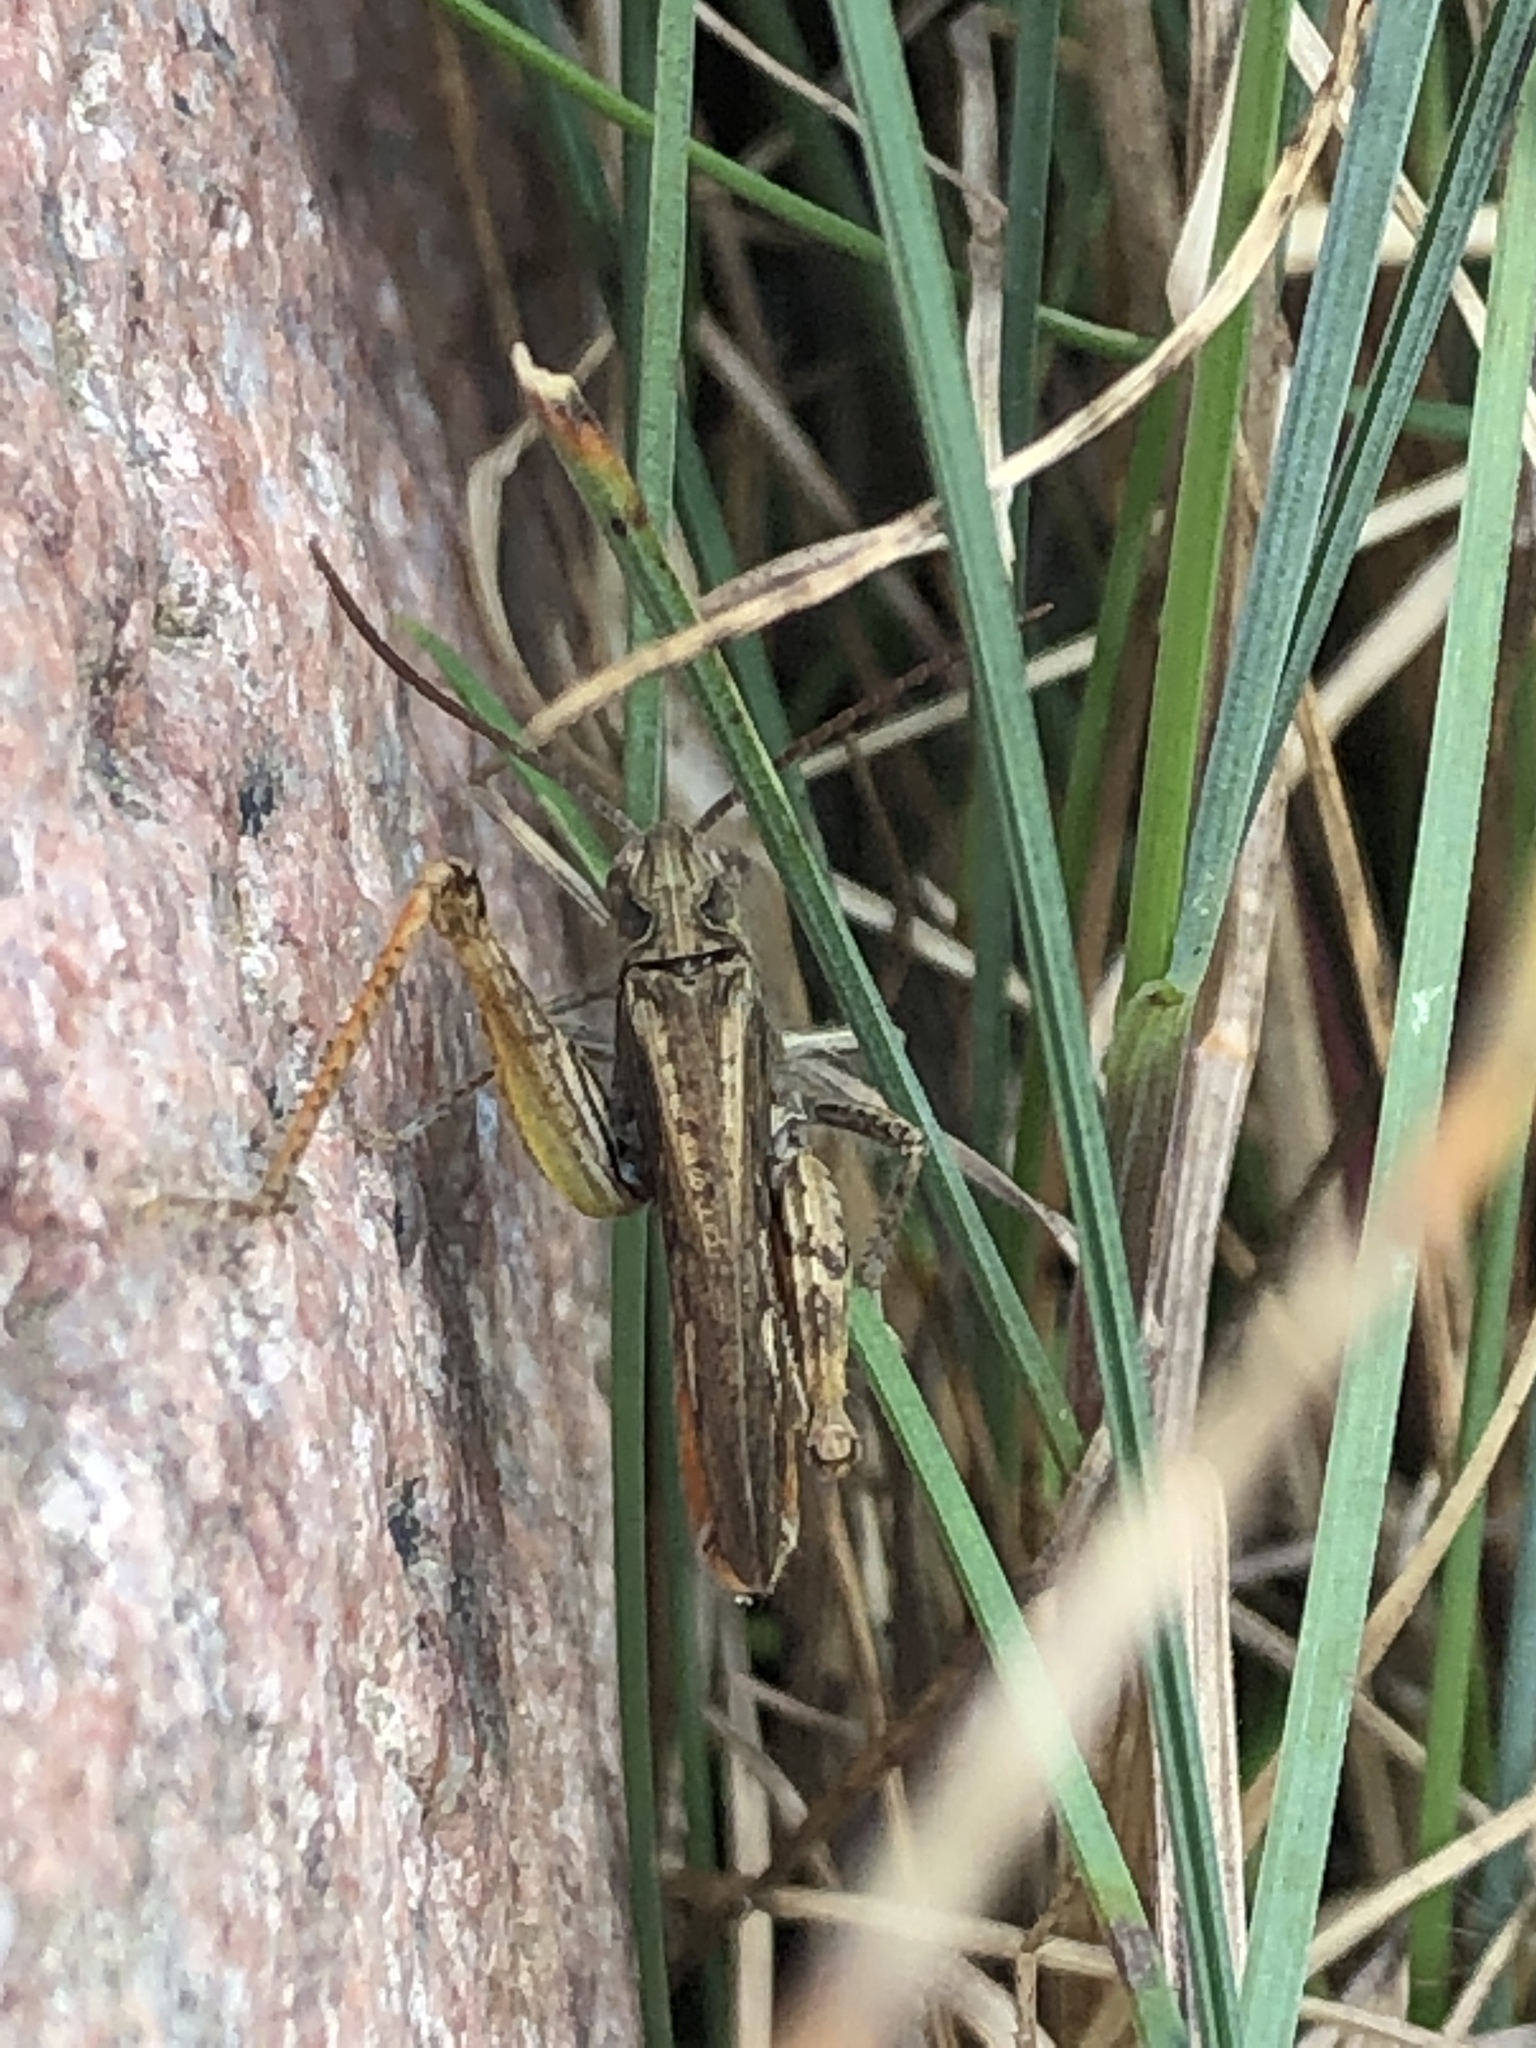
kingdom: Animalia
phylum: Arthropoda
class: Insecta
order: Orthoptera
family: Acrididae
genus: Chorthippus
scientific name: Chorthippus brunneus
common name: Field grasshopper
